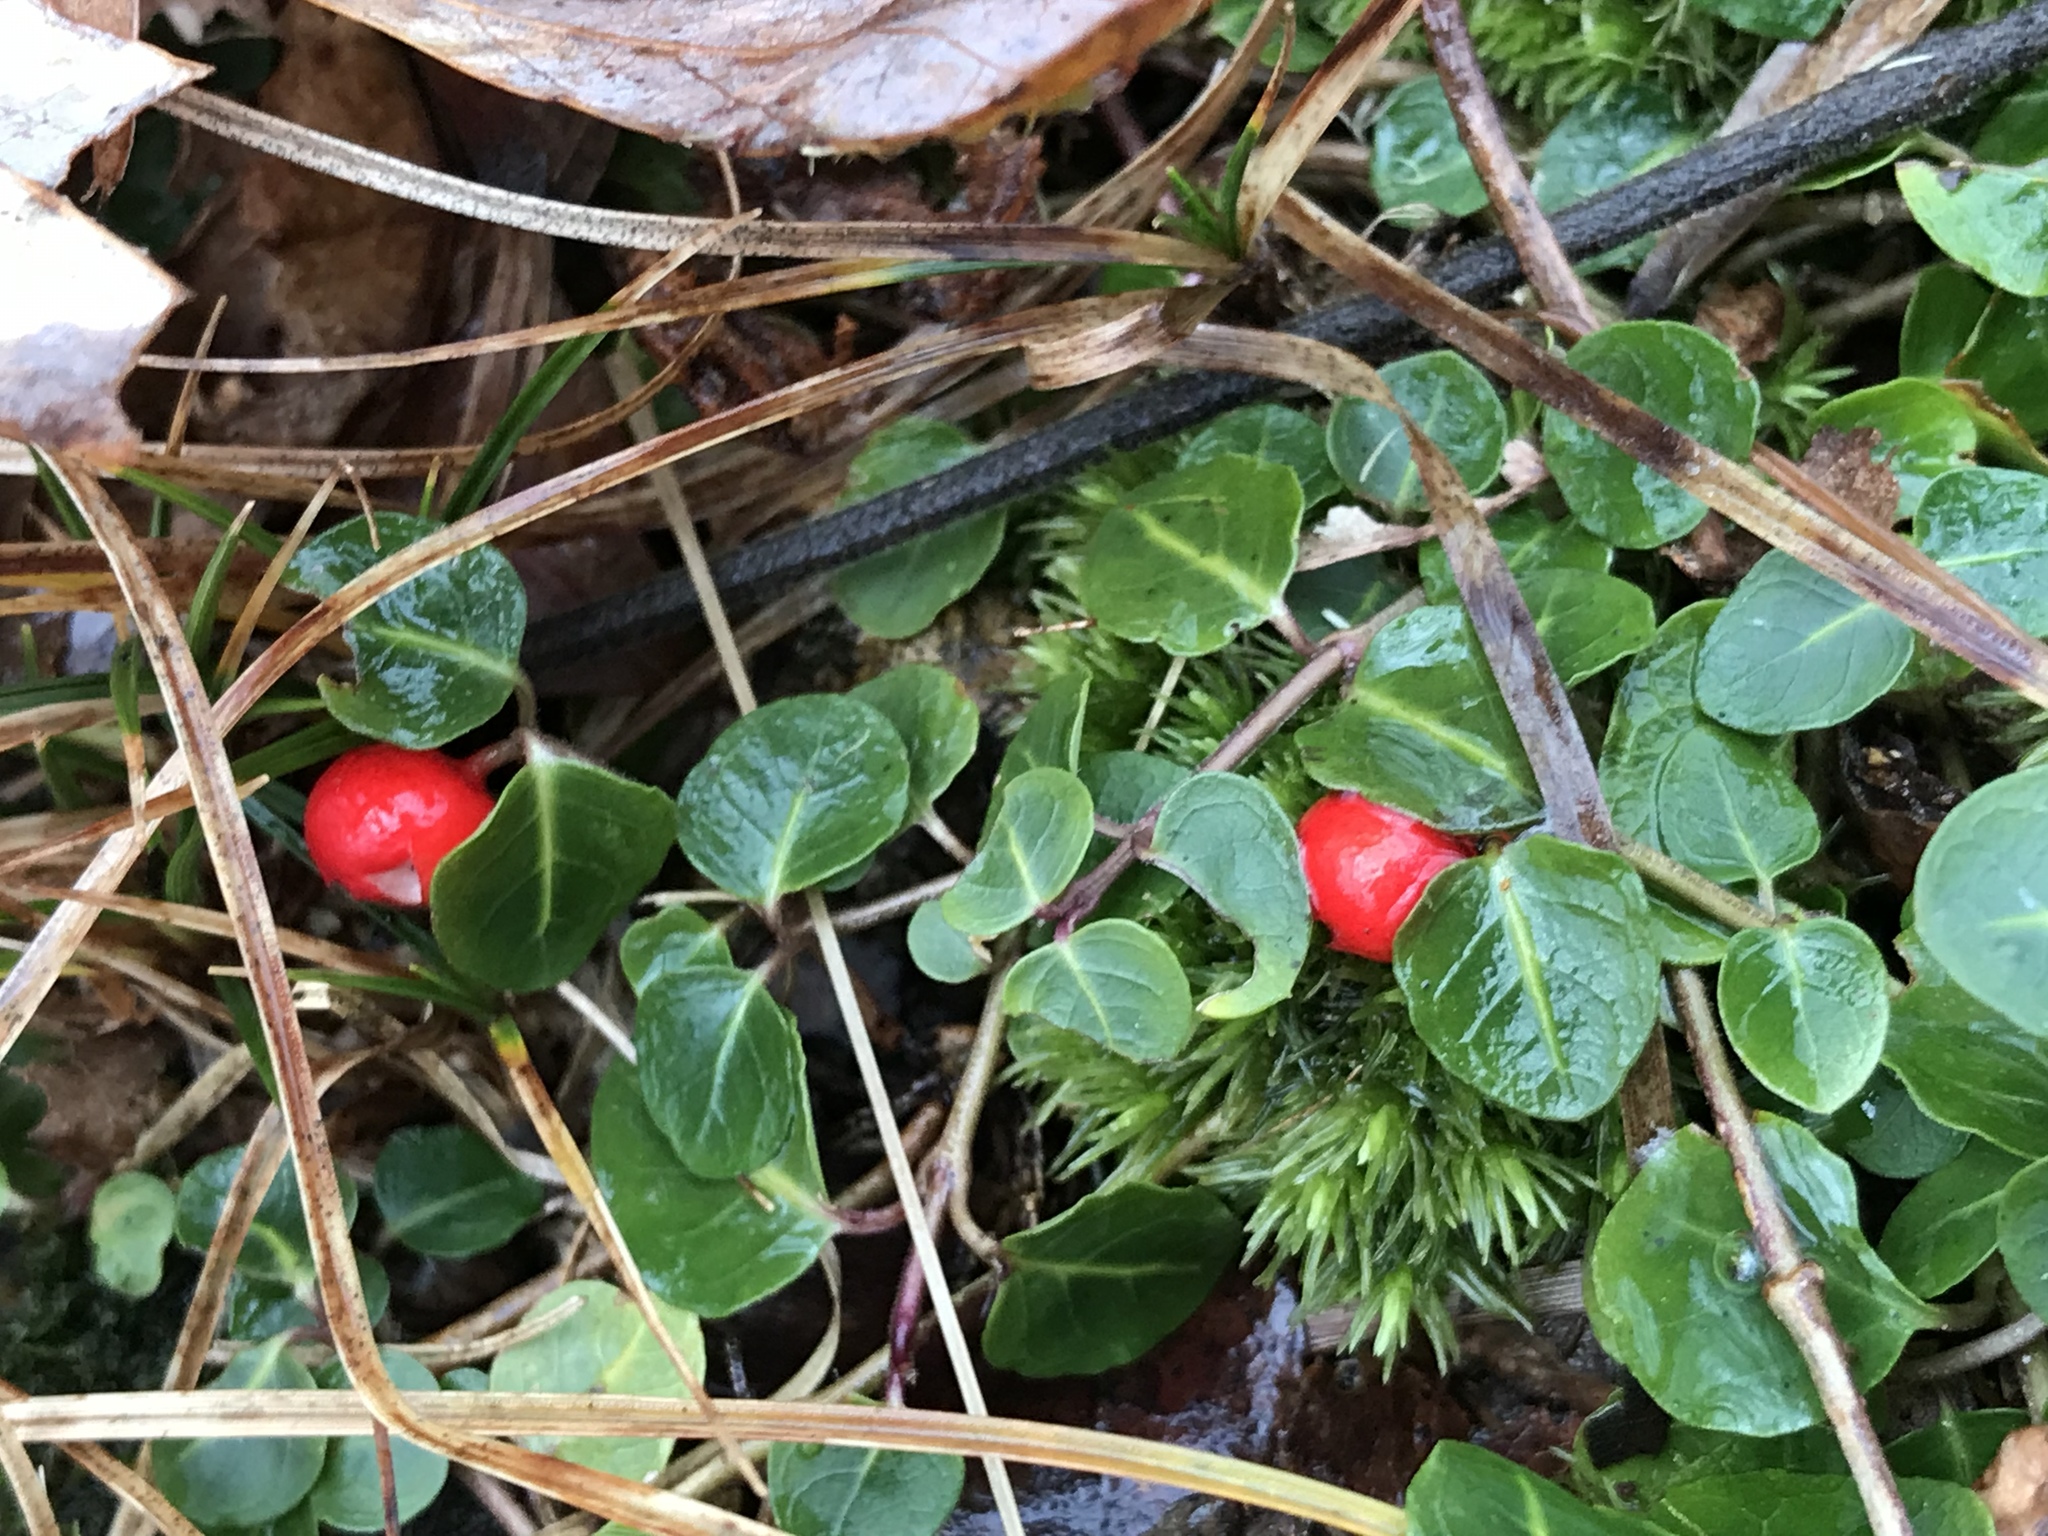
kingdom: Plantae
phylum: Tracheophyta
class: Magnoliopsida
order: Gentianales
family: Rubiaceae
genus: Mitchella
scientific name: Mitchella repens
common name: Partridge-berry
